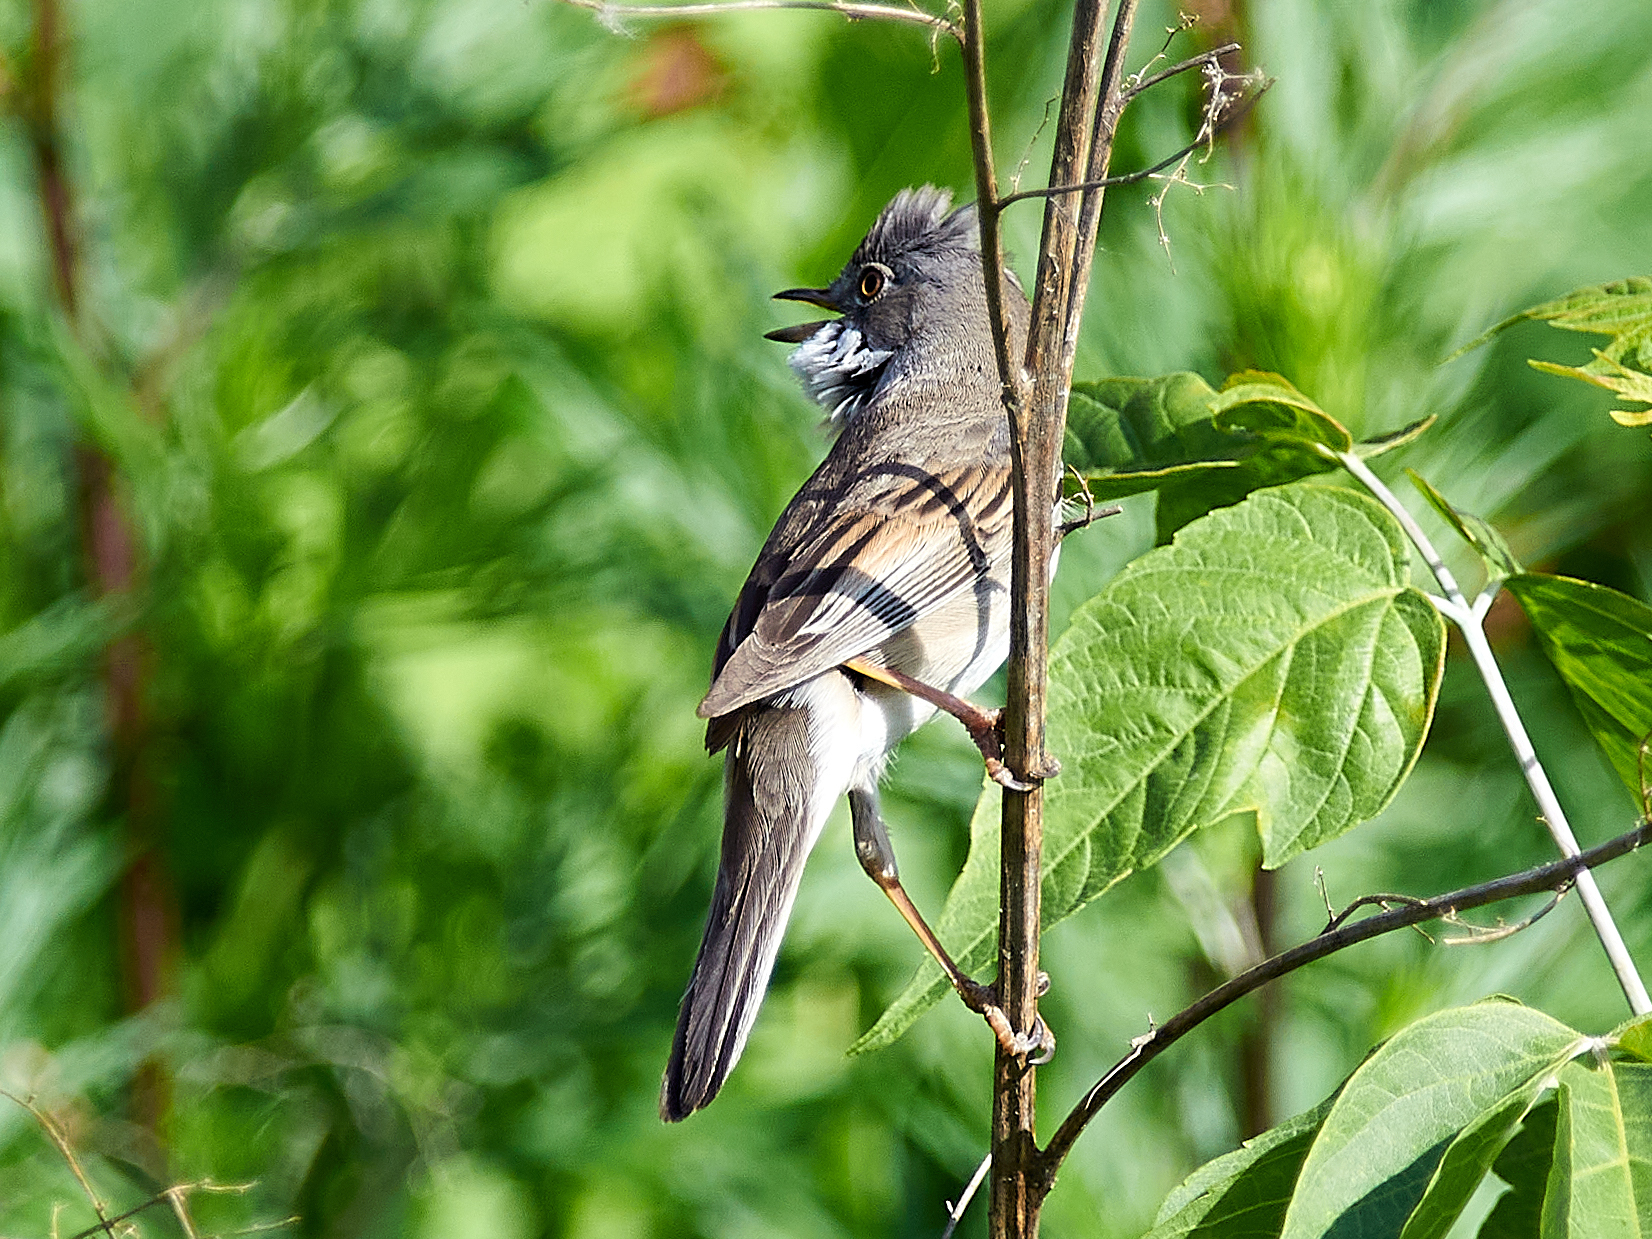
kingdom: Animalia
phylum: Chordata
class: Aves
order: Passeriformes
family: Sylviidae
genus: Sylvia
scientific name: Sylvia communis
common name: Common whitethroat
